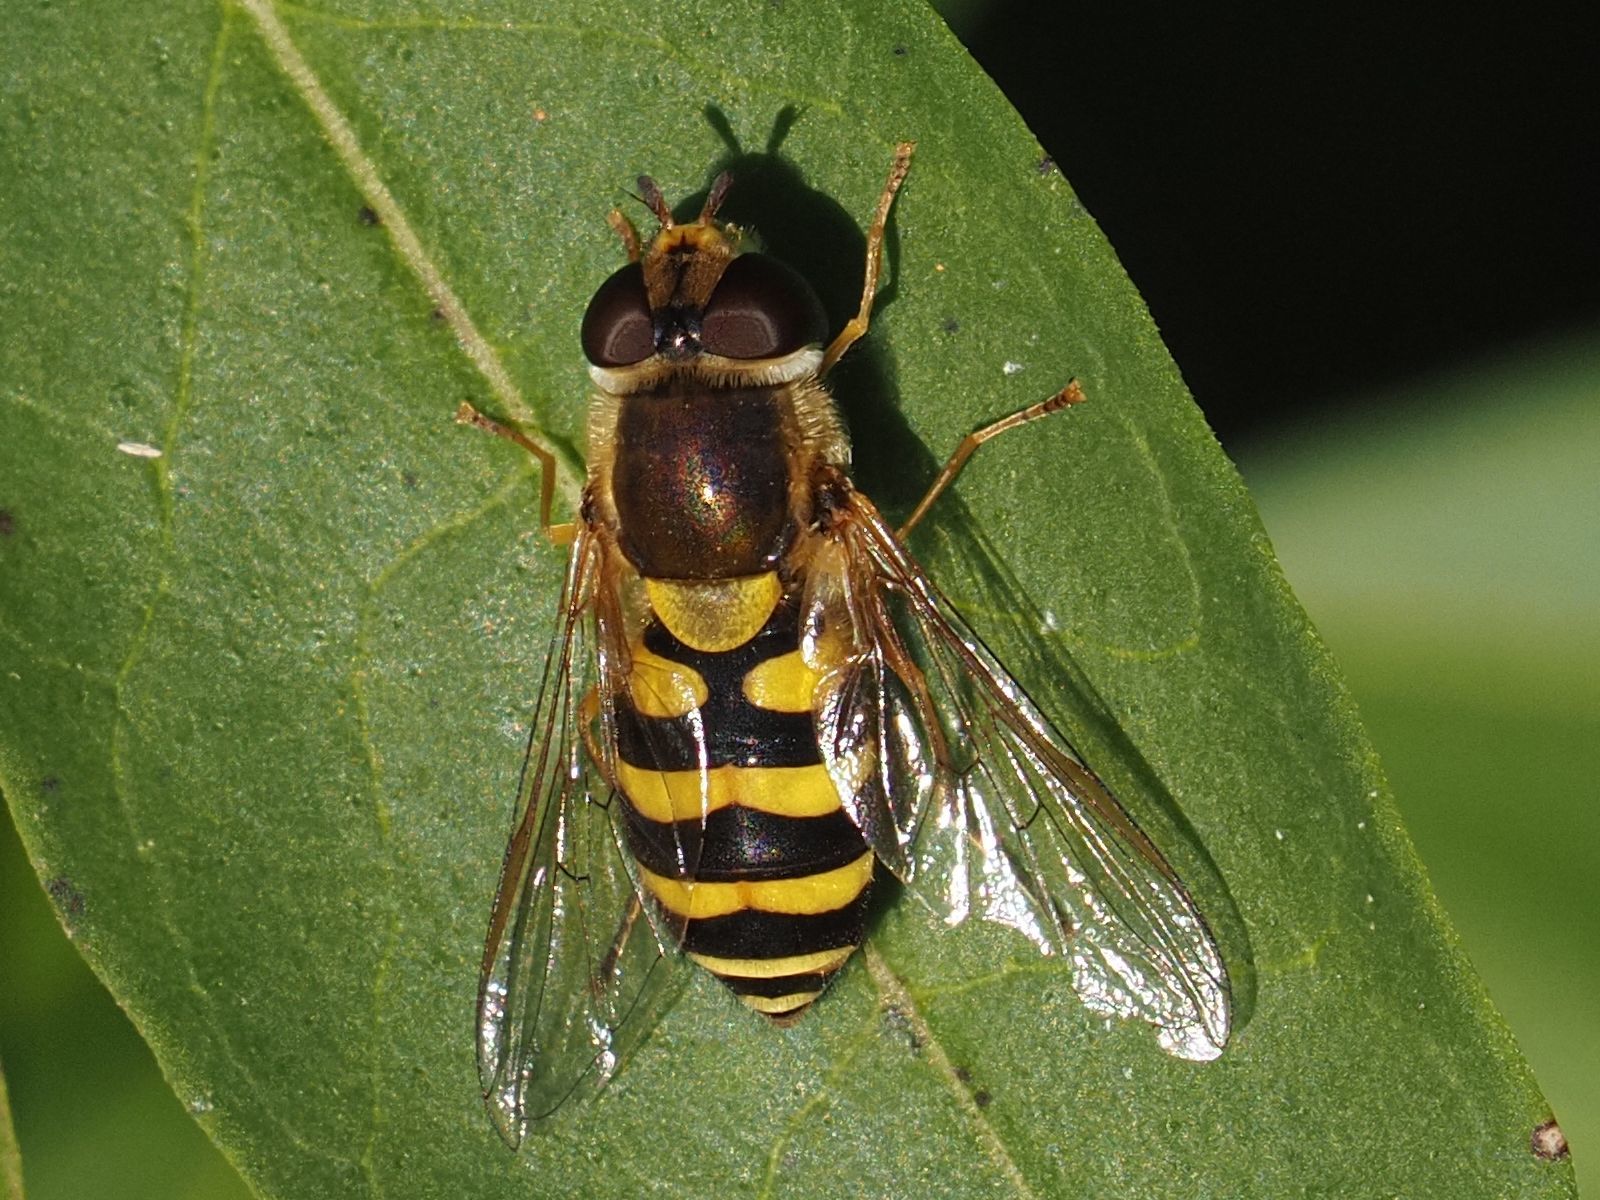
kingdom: Animalia
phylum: Arthropoda
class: Insecta
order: Diptera
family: Syrphidae
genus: Syrphus
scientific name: Syrphus
